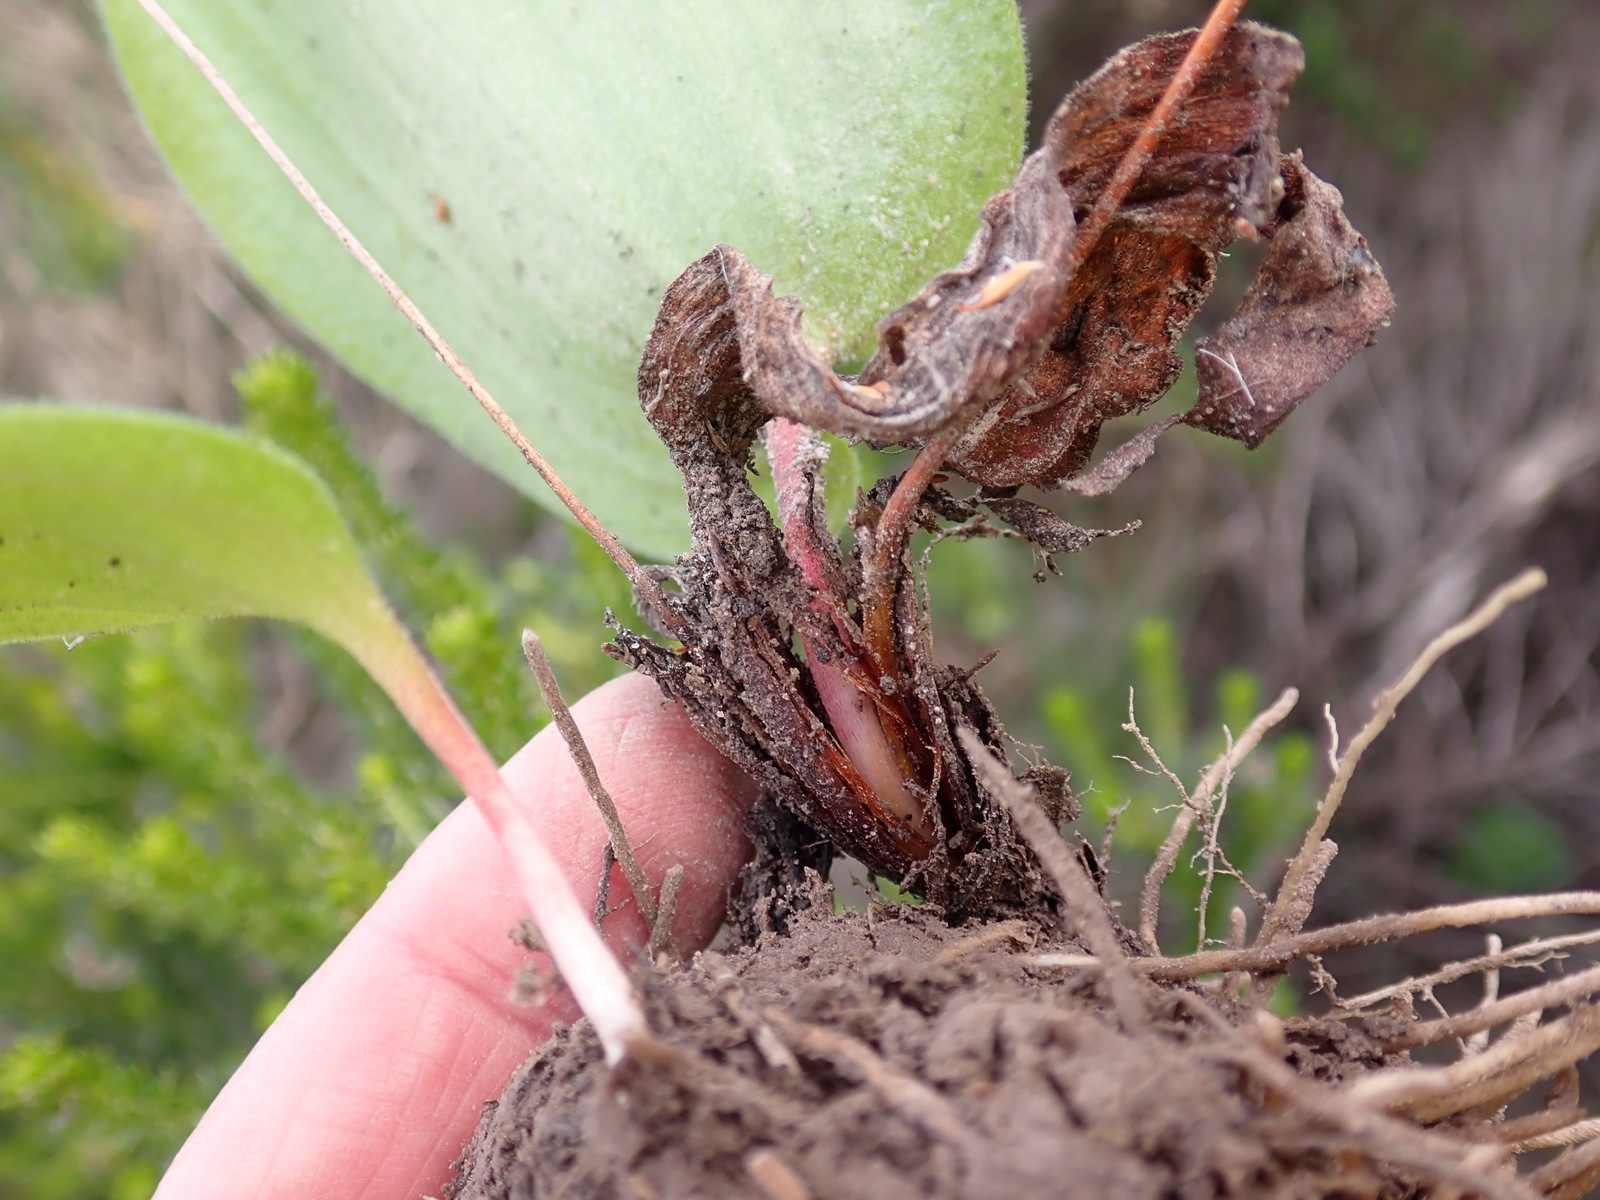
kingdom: Plantae
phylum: Tracheophyta
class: Liliopsida
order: Asparagales
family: Asparagaceae
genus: Eriospermum
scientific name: Eriospermum dielsianum
